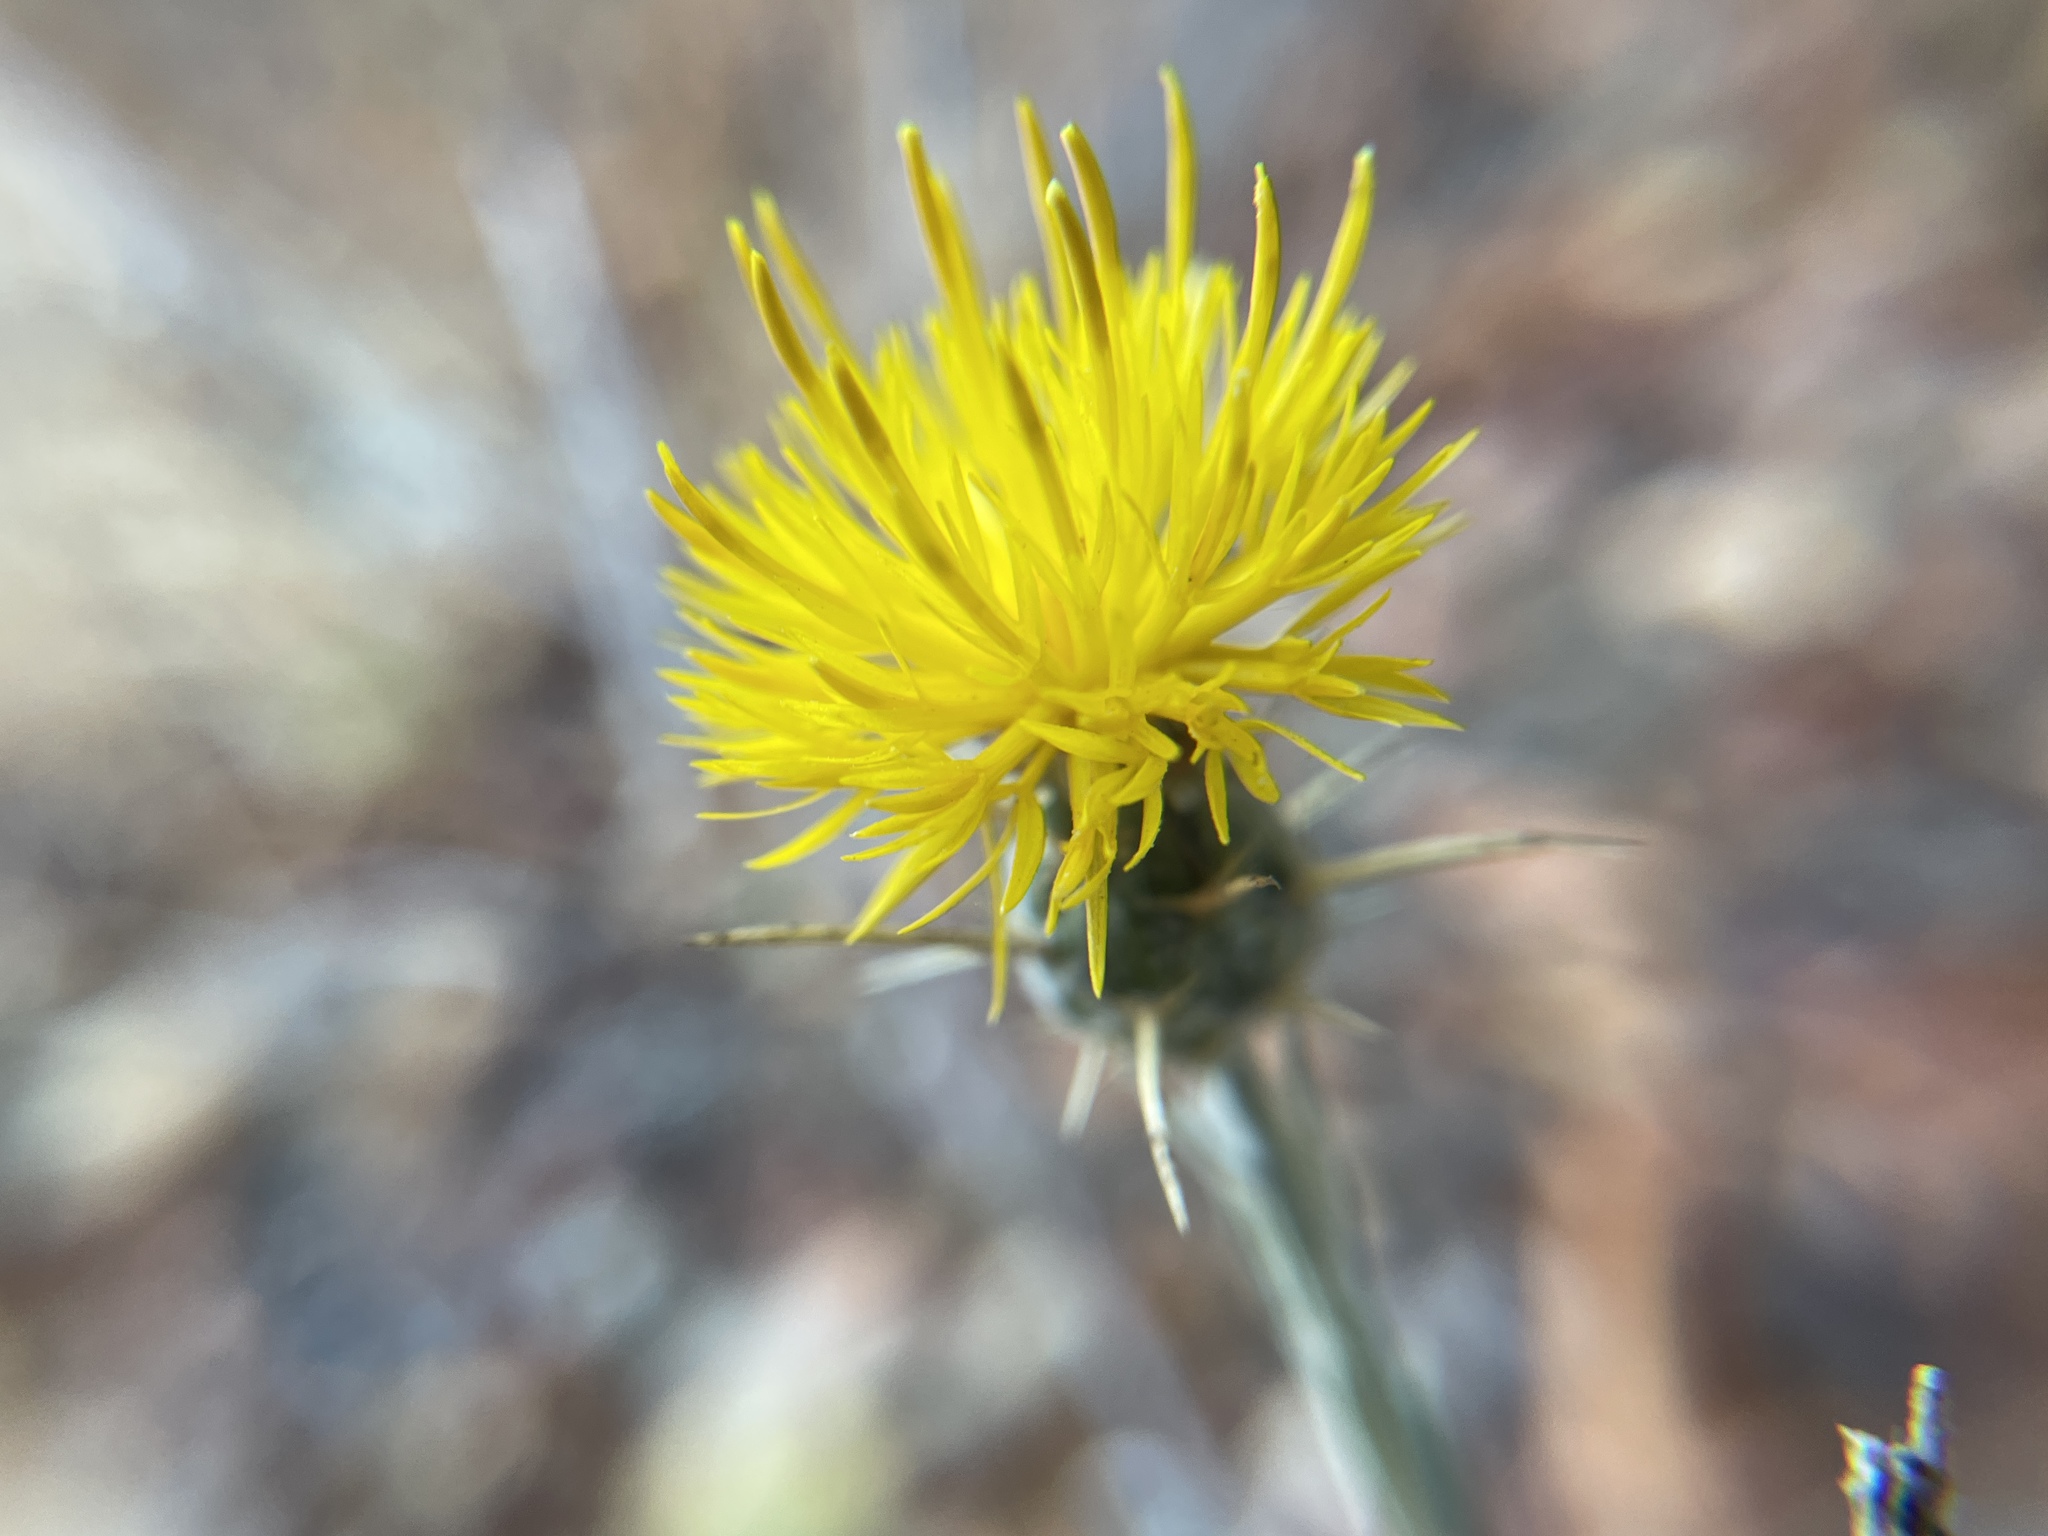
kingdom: Plantae
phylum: Tracheophyta
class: Magnoliopsida
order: Asterales
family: Asteraceae
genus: Centaurea
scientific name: Centaurea solstitialis
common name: Yellow star-thistle
